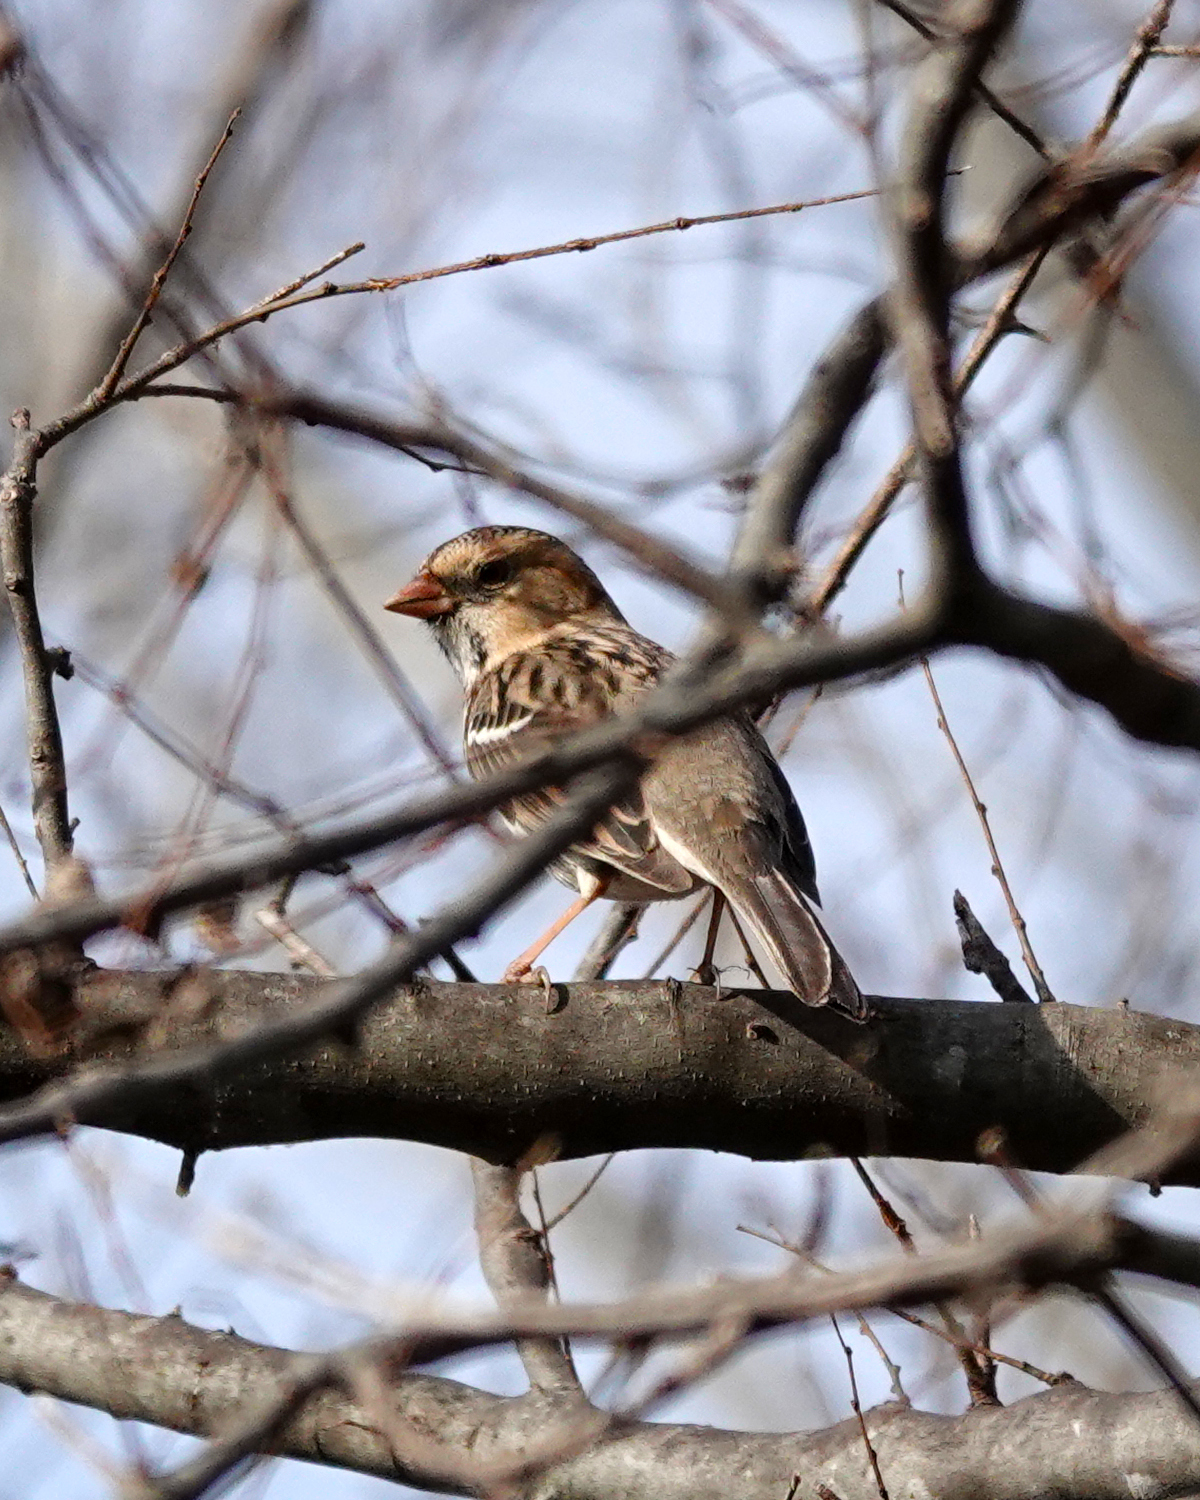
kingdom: Animalia
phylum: Chordata
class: Aves
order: Passeriformes
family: Passerellidae
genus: Zonotrichia
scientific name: Zonotrichia querula
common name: Harris's sparrow
